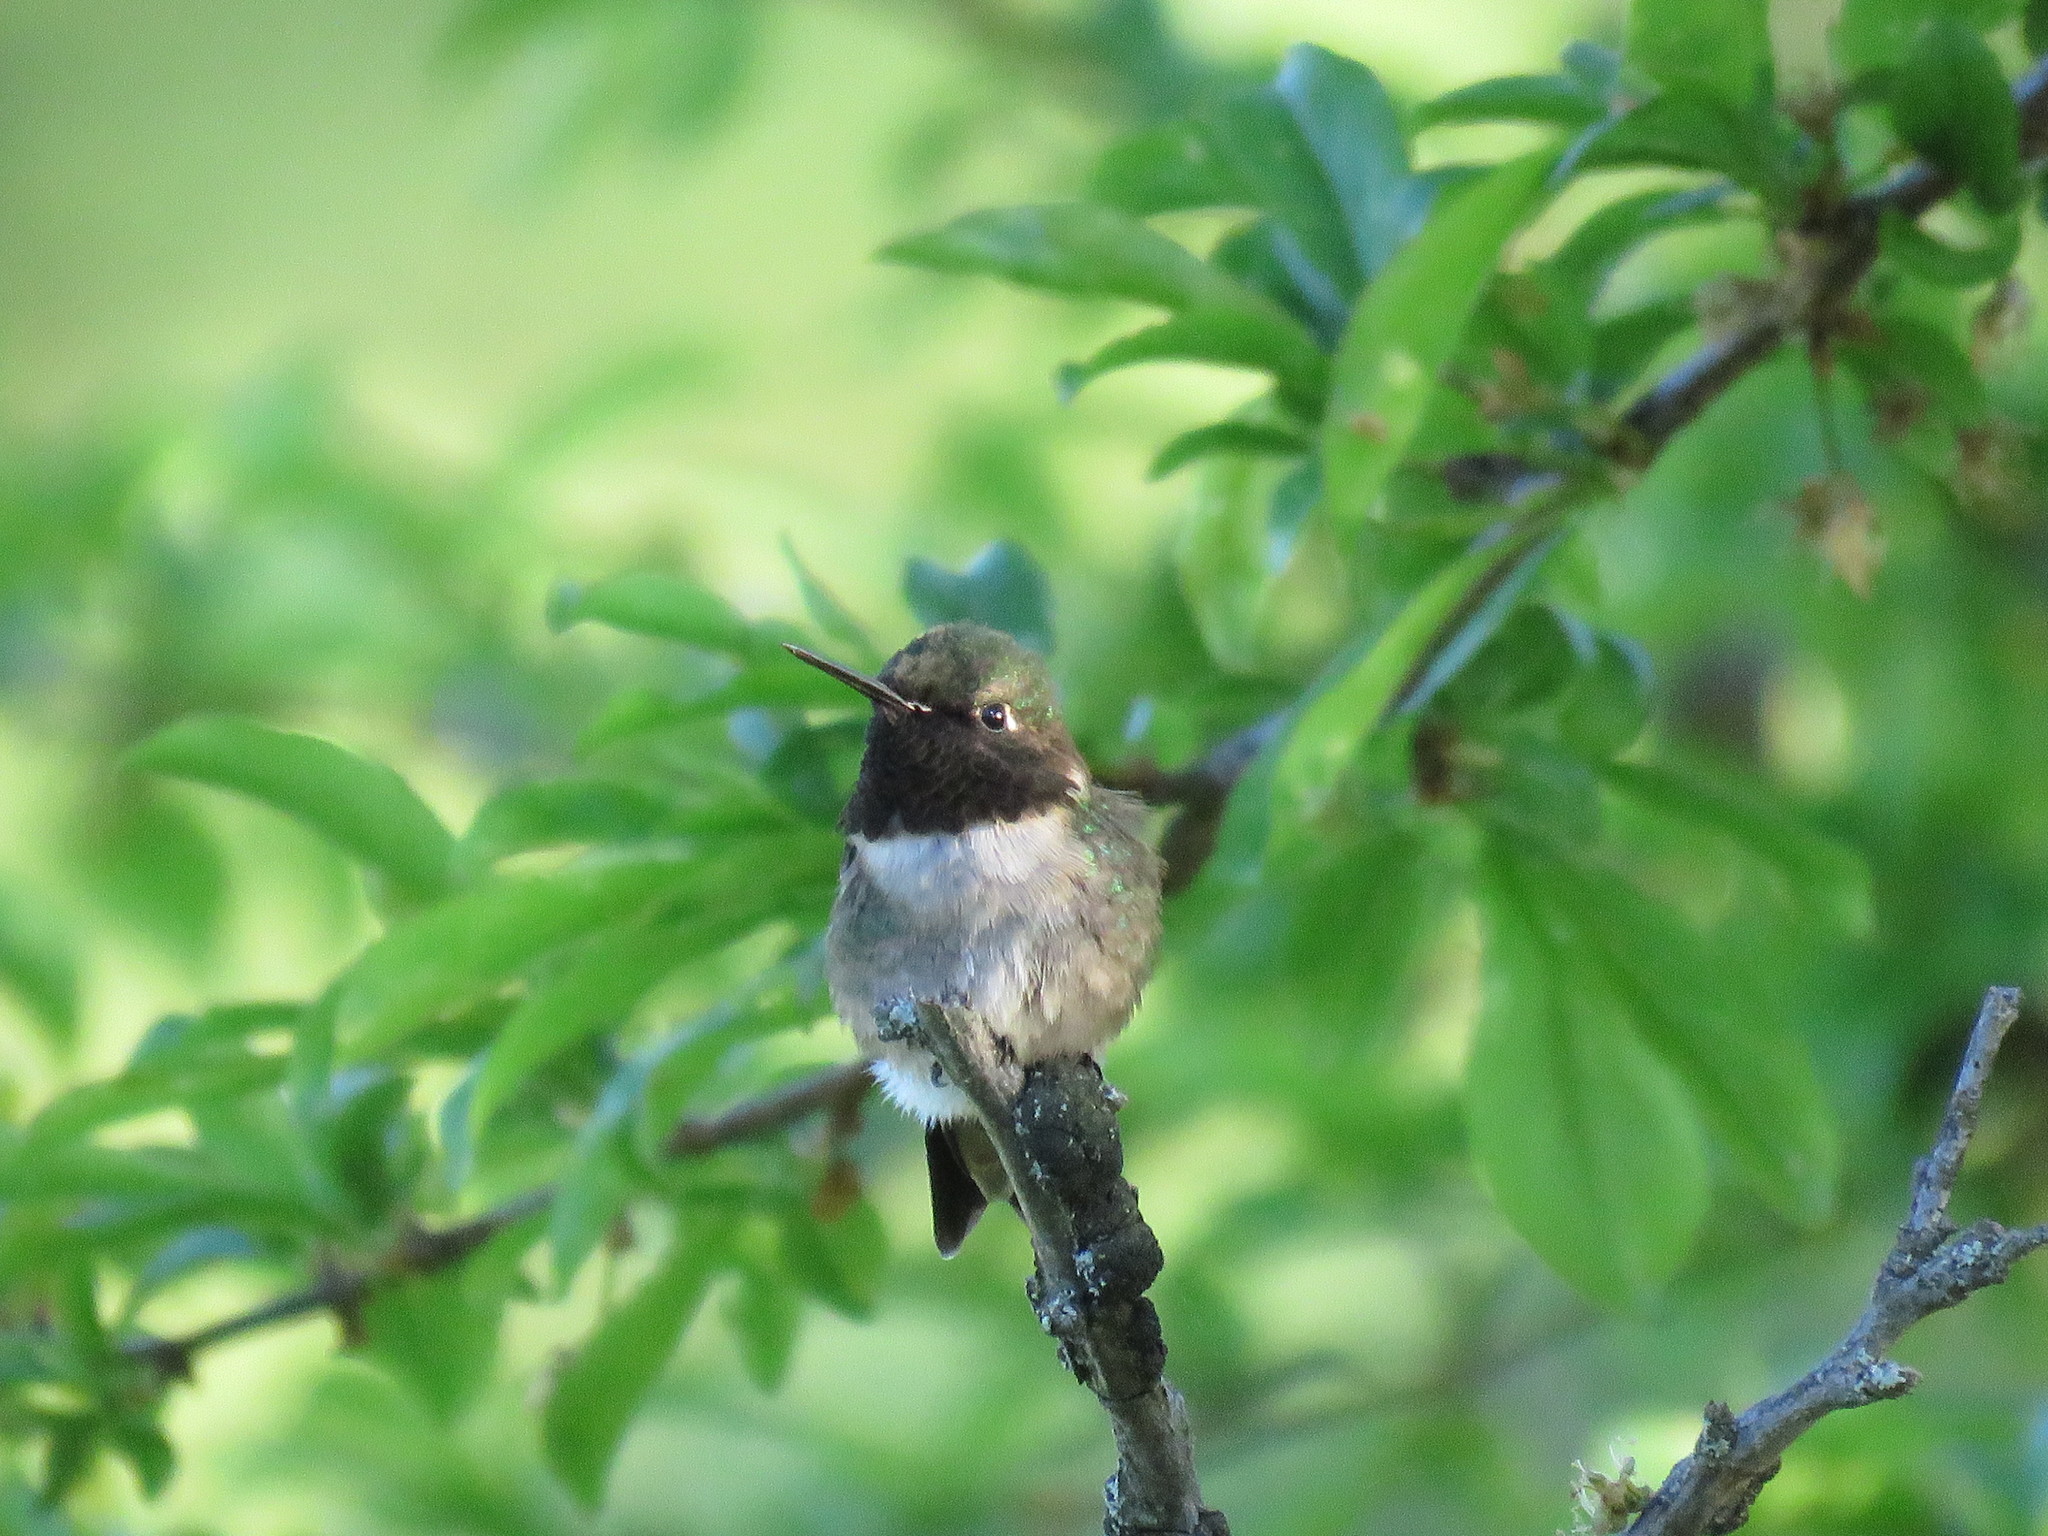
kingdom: Animalia
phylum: Chordata
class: Aves
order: Apodiformes
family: Trochilidae
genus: Archilochus
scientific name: Archilochus colubris
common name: Ruby-throated hummingbird
